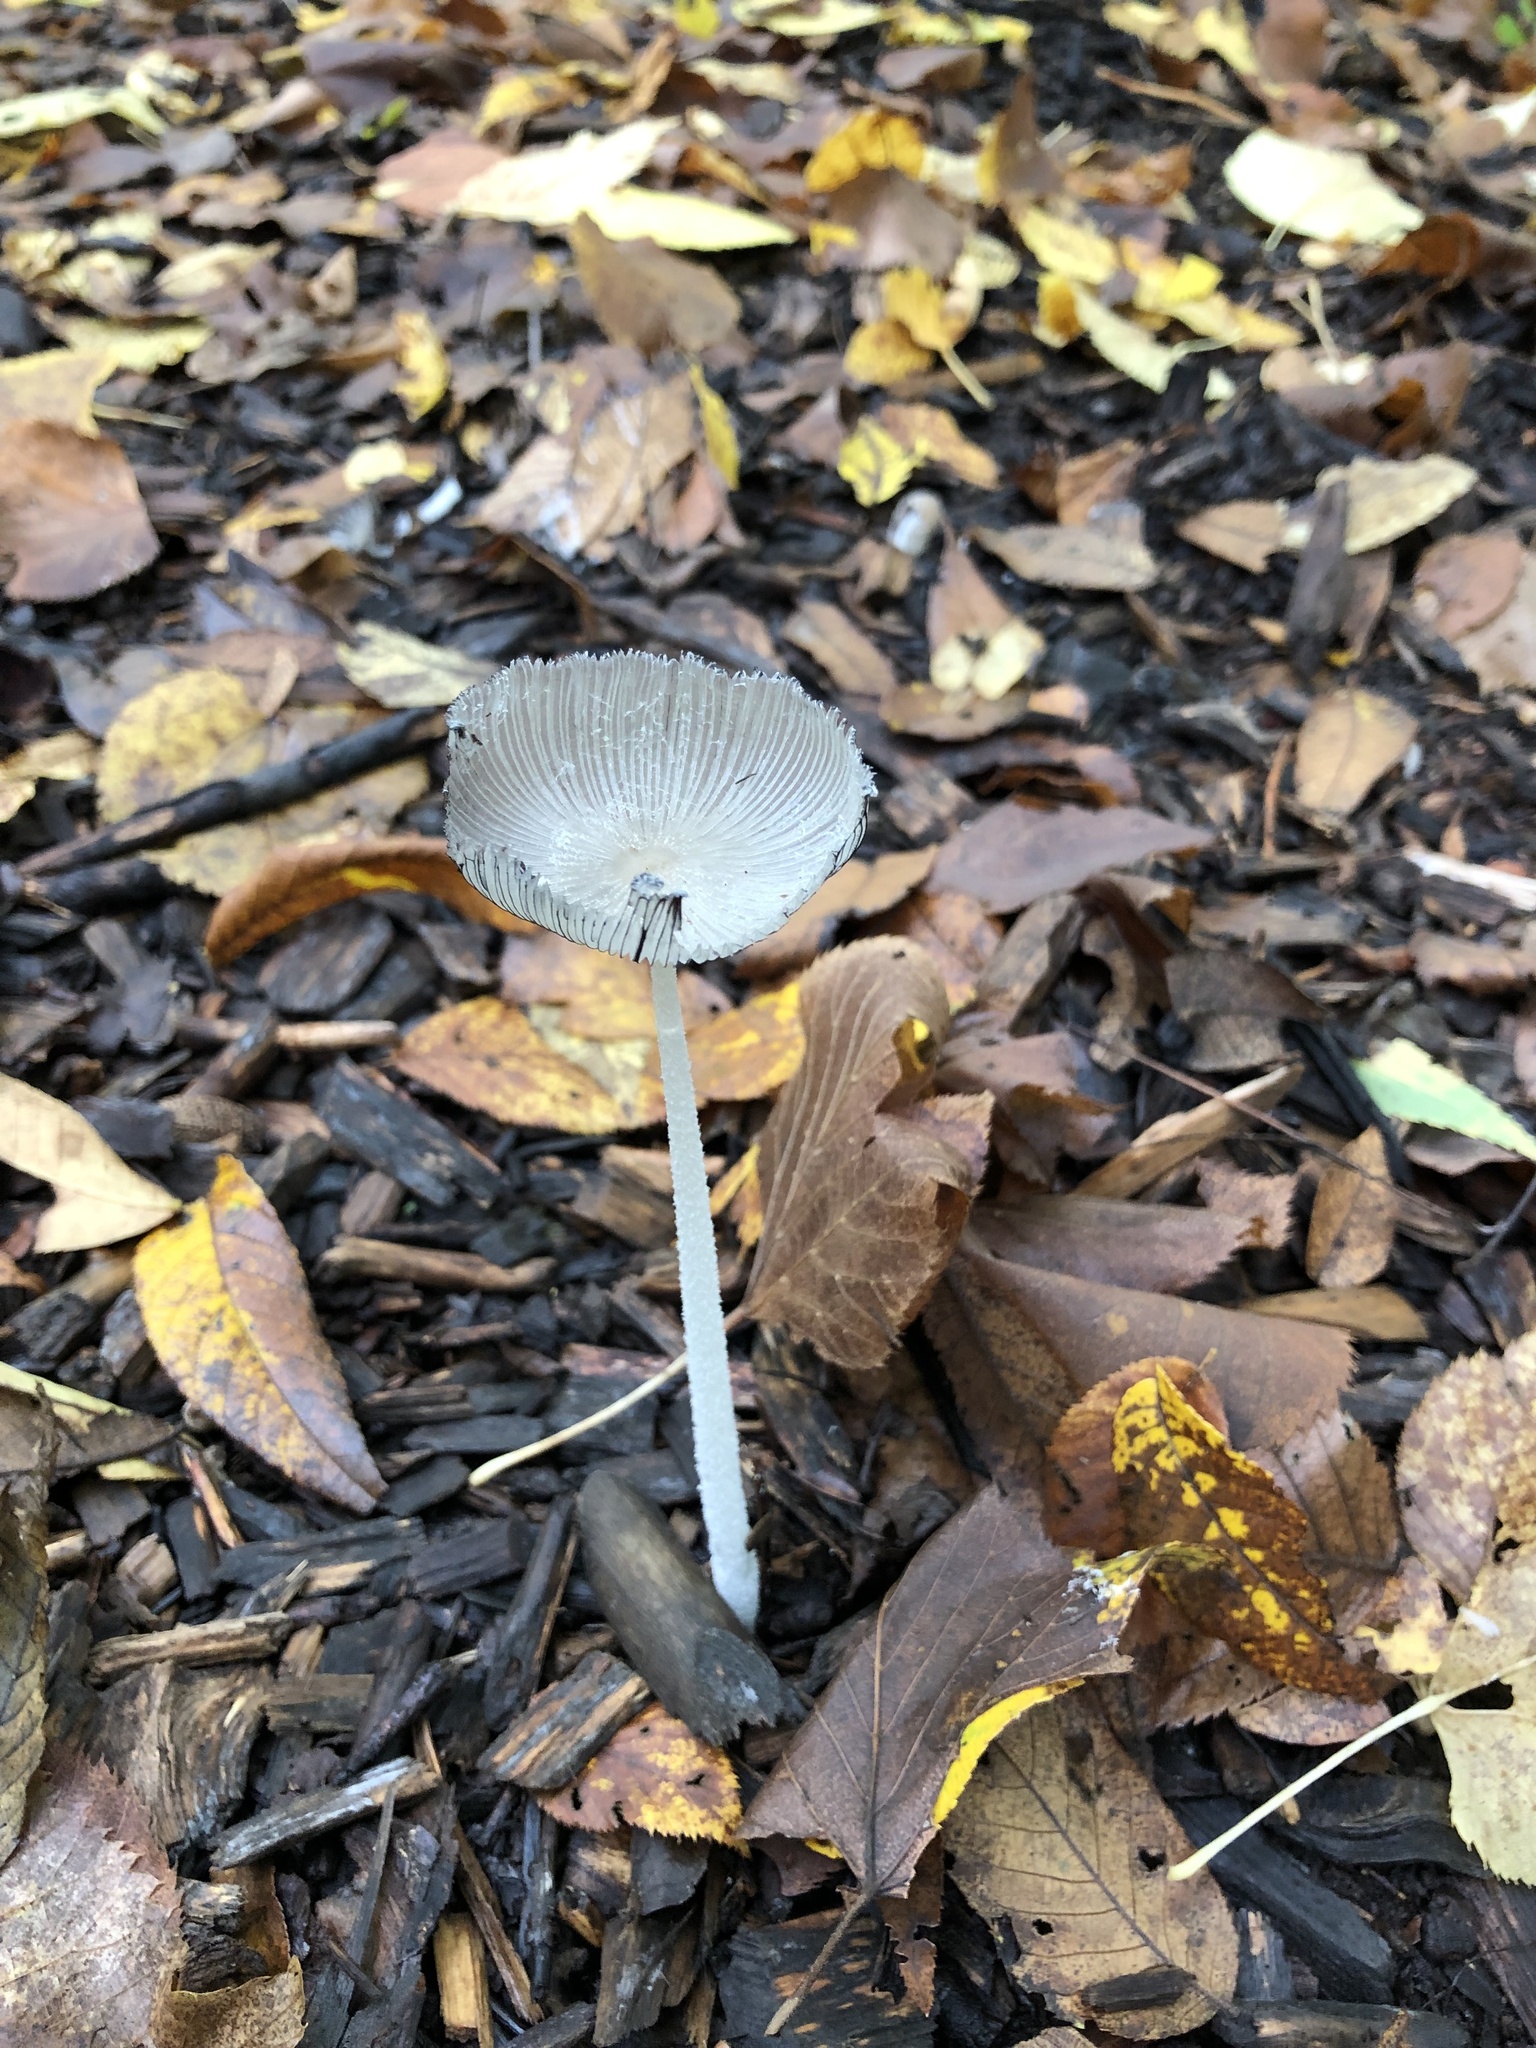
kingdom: Fungi
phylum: Basidiomycota
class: Agaricomycetes
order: Agaricales
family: Psathyrellaceae
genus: Coprinopsis
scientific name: Coprinopsis lagopus
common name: Hare'sfoot inkcap
